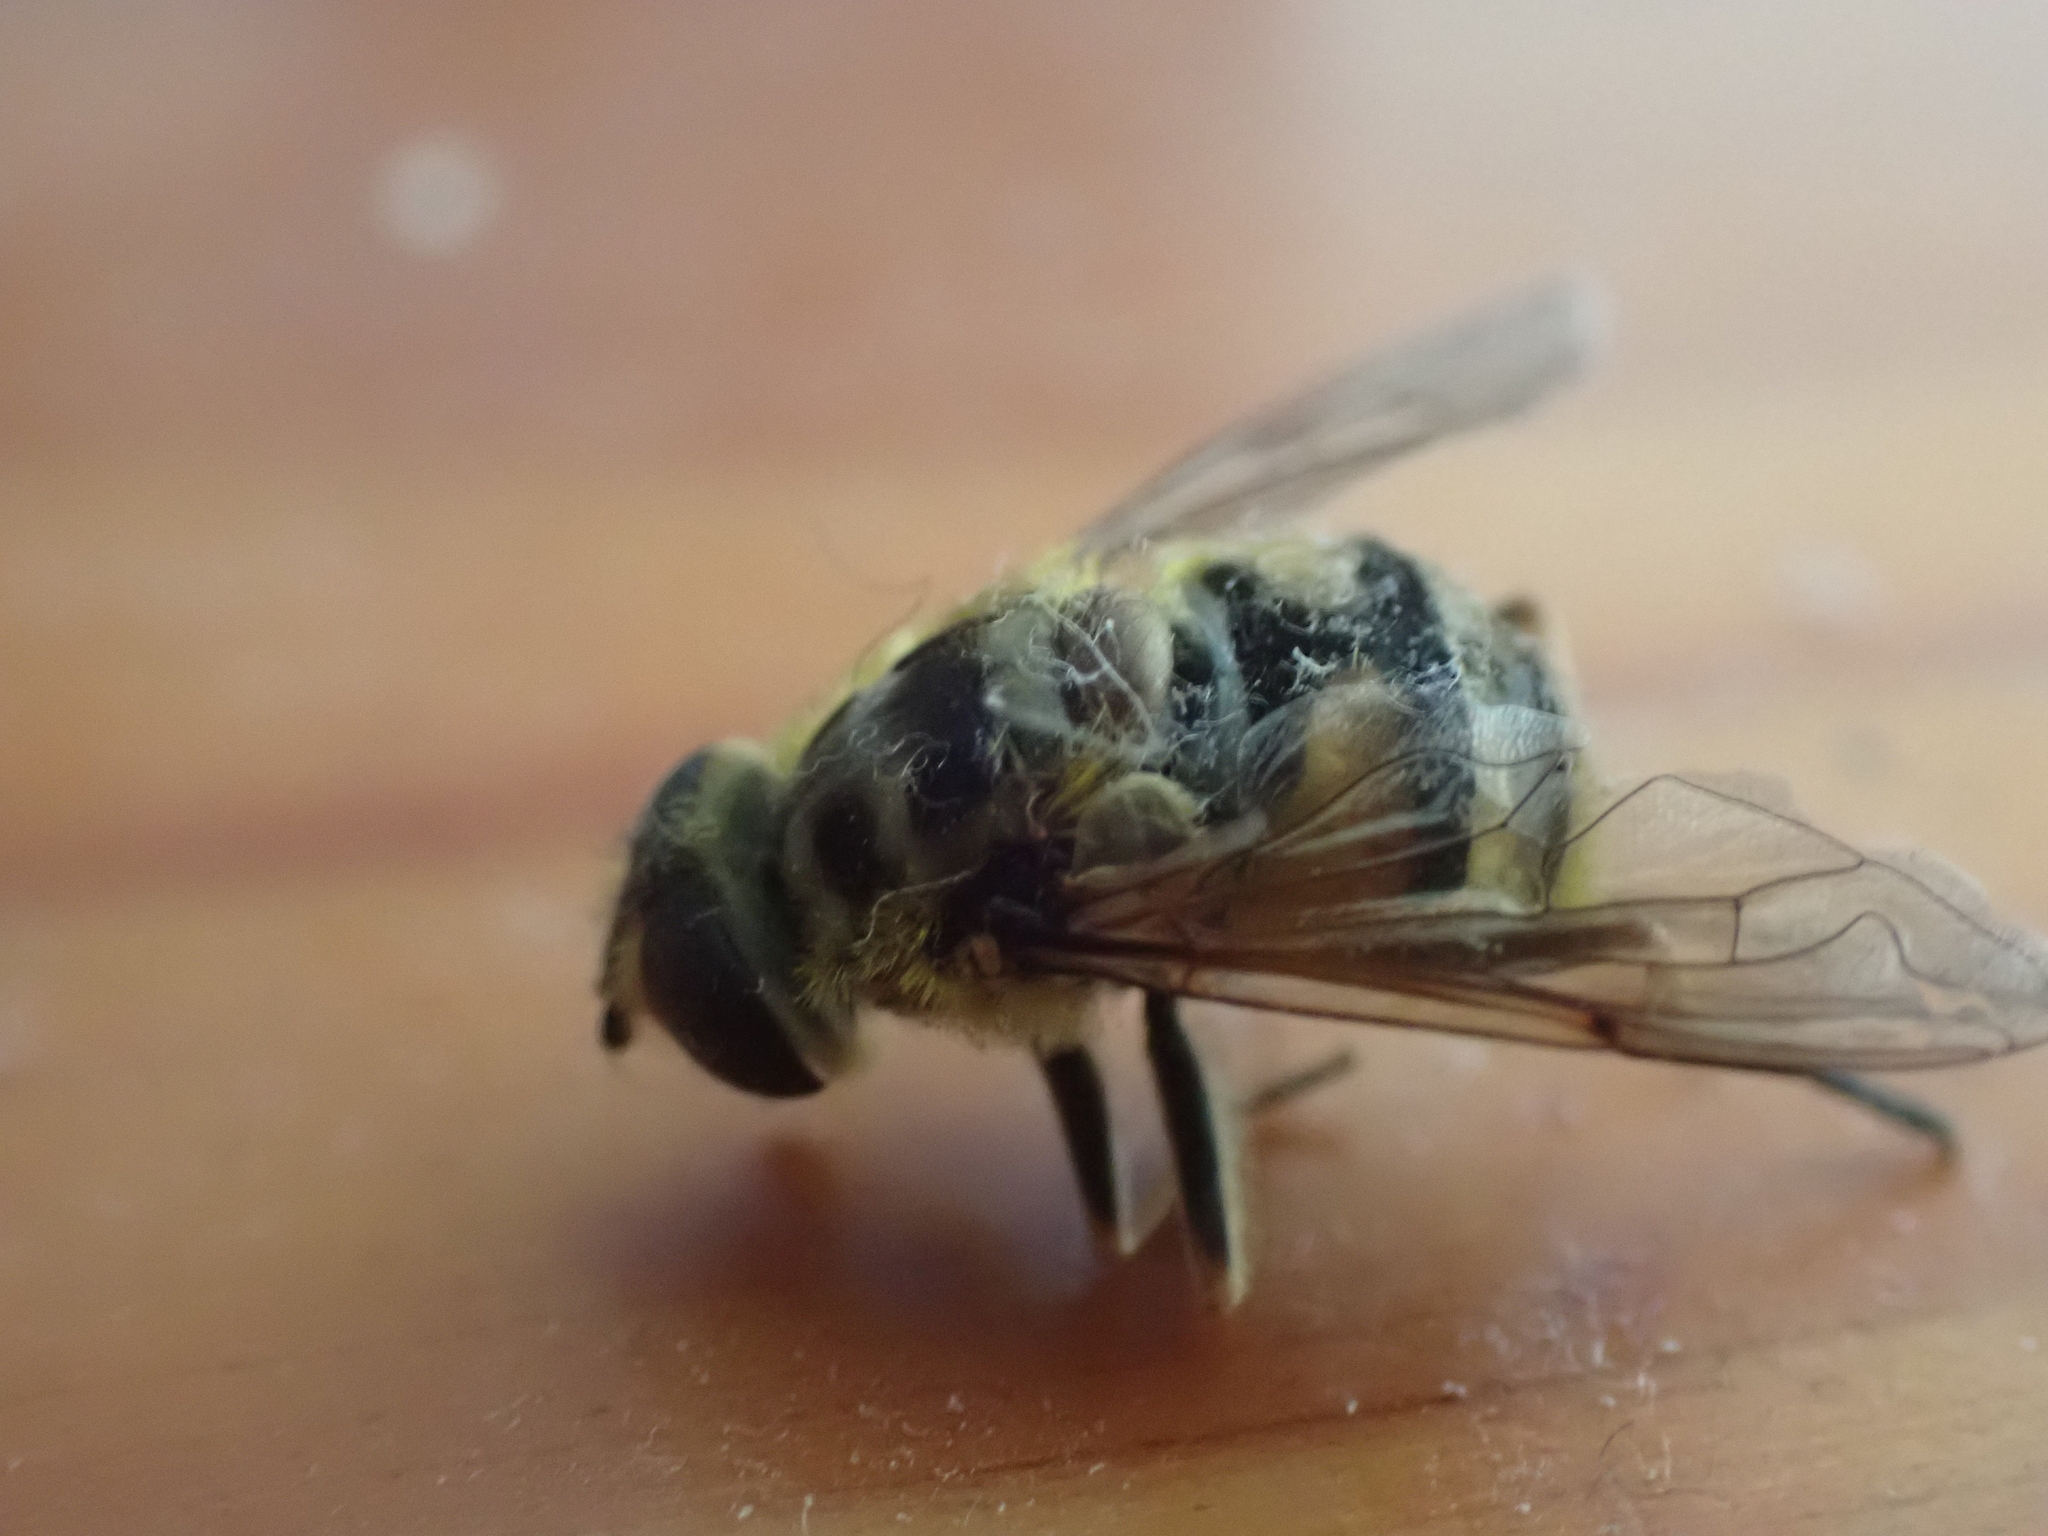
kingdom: Animalia
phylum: Arthropoda
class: Insecta
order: Diptera
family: Syrphidae
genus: Myathropa
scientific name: Myathropa florea
